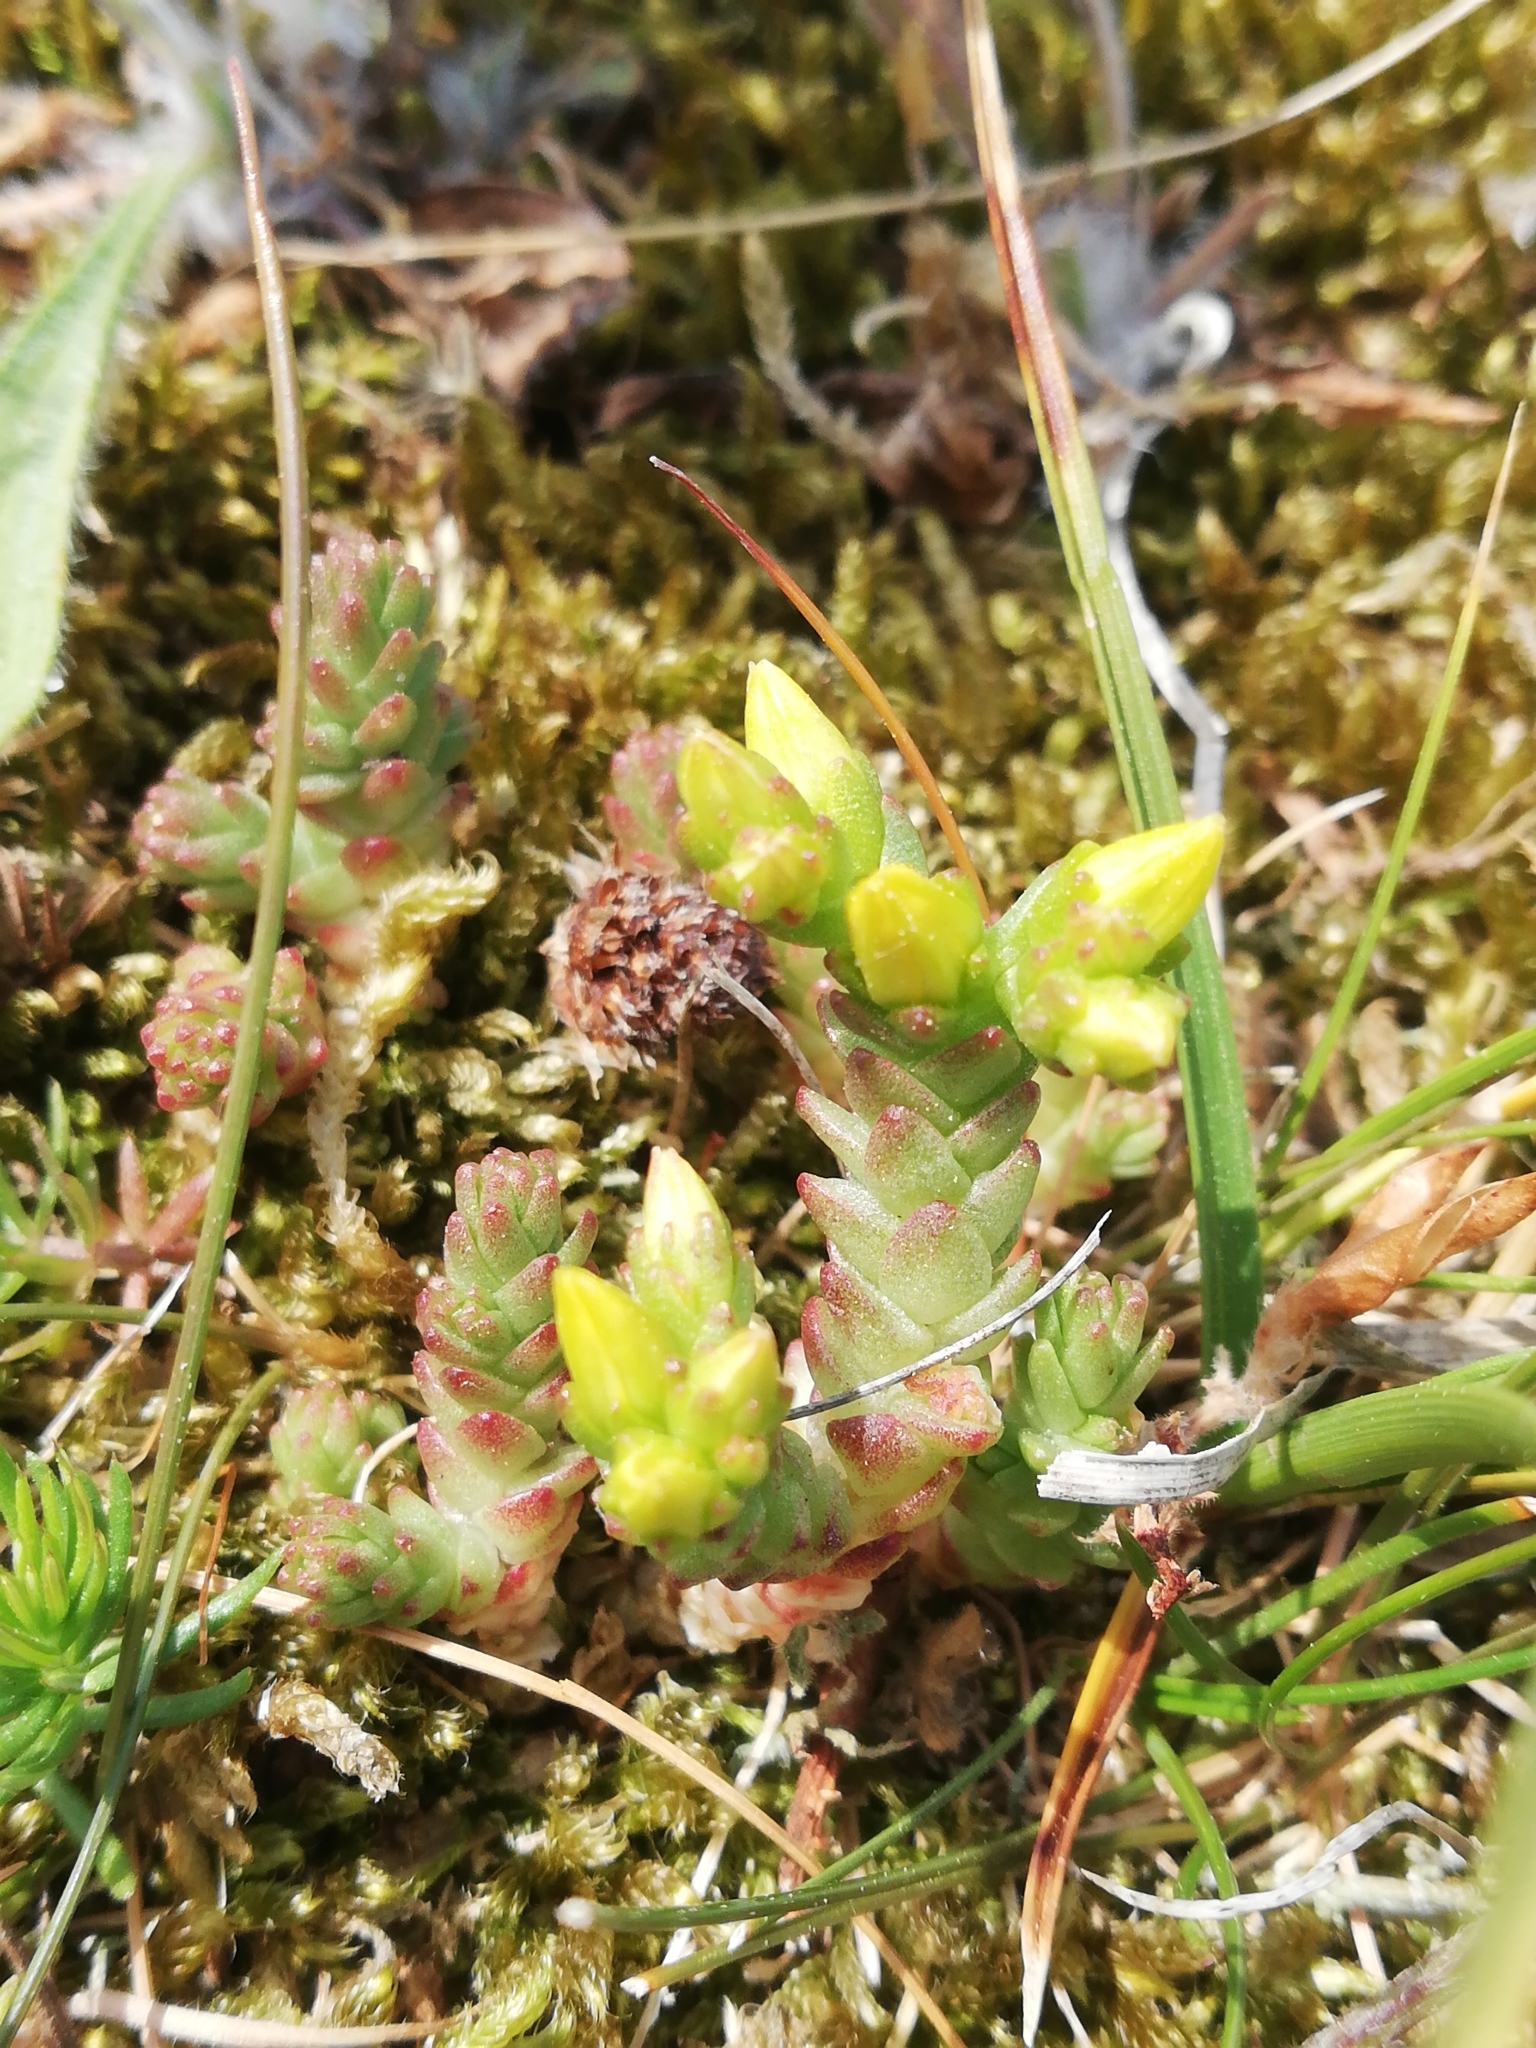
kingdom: Plantae
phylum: Tracheophyta
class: Magnoliopsida
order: Saxifragales
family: Crassulaceae
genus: Sedum
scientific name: Sedum acre
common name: Biting stonecrop
